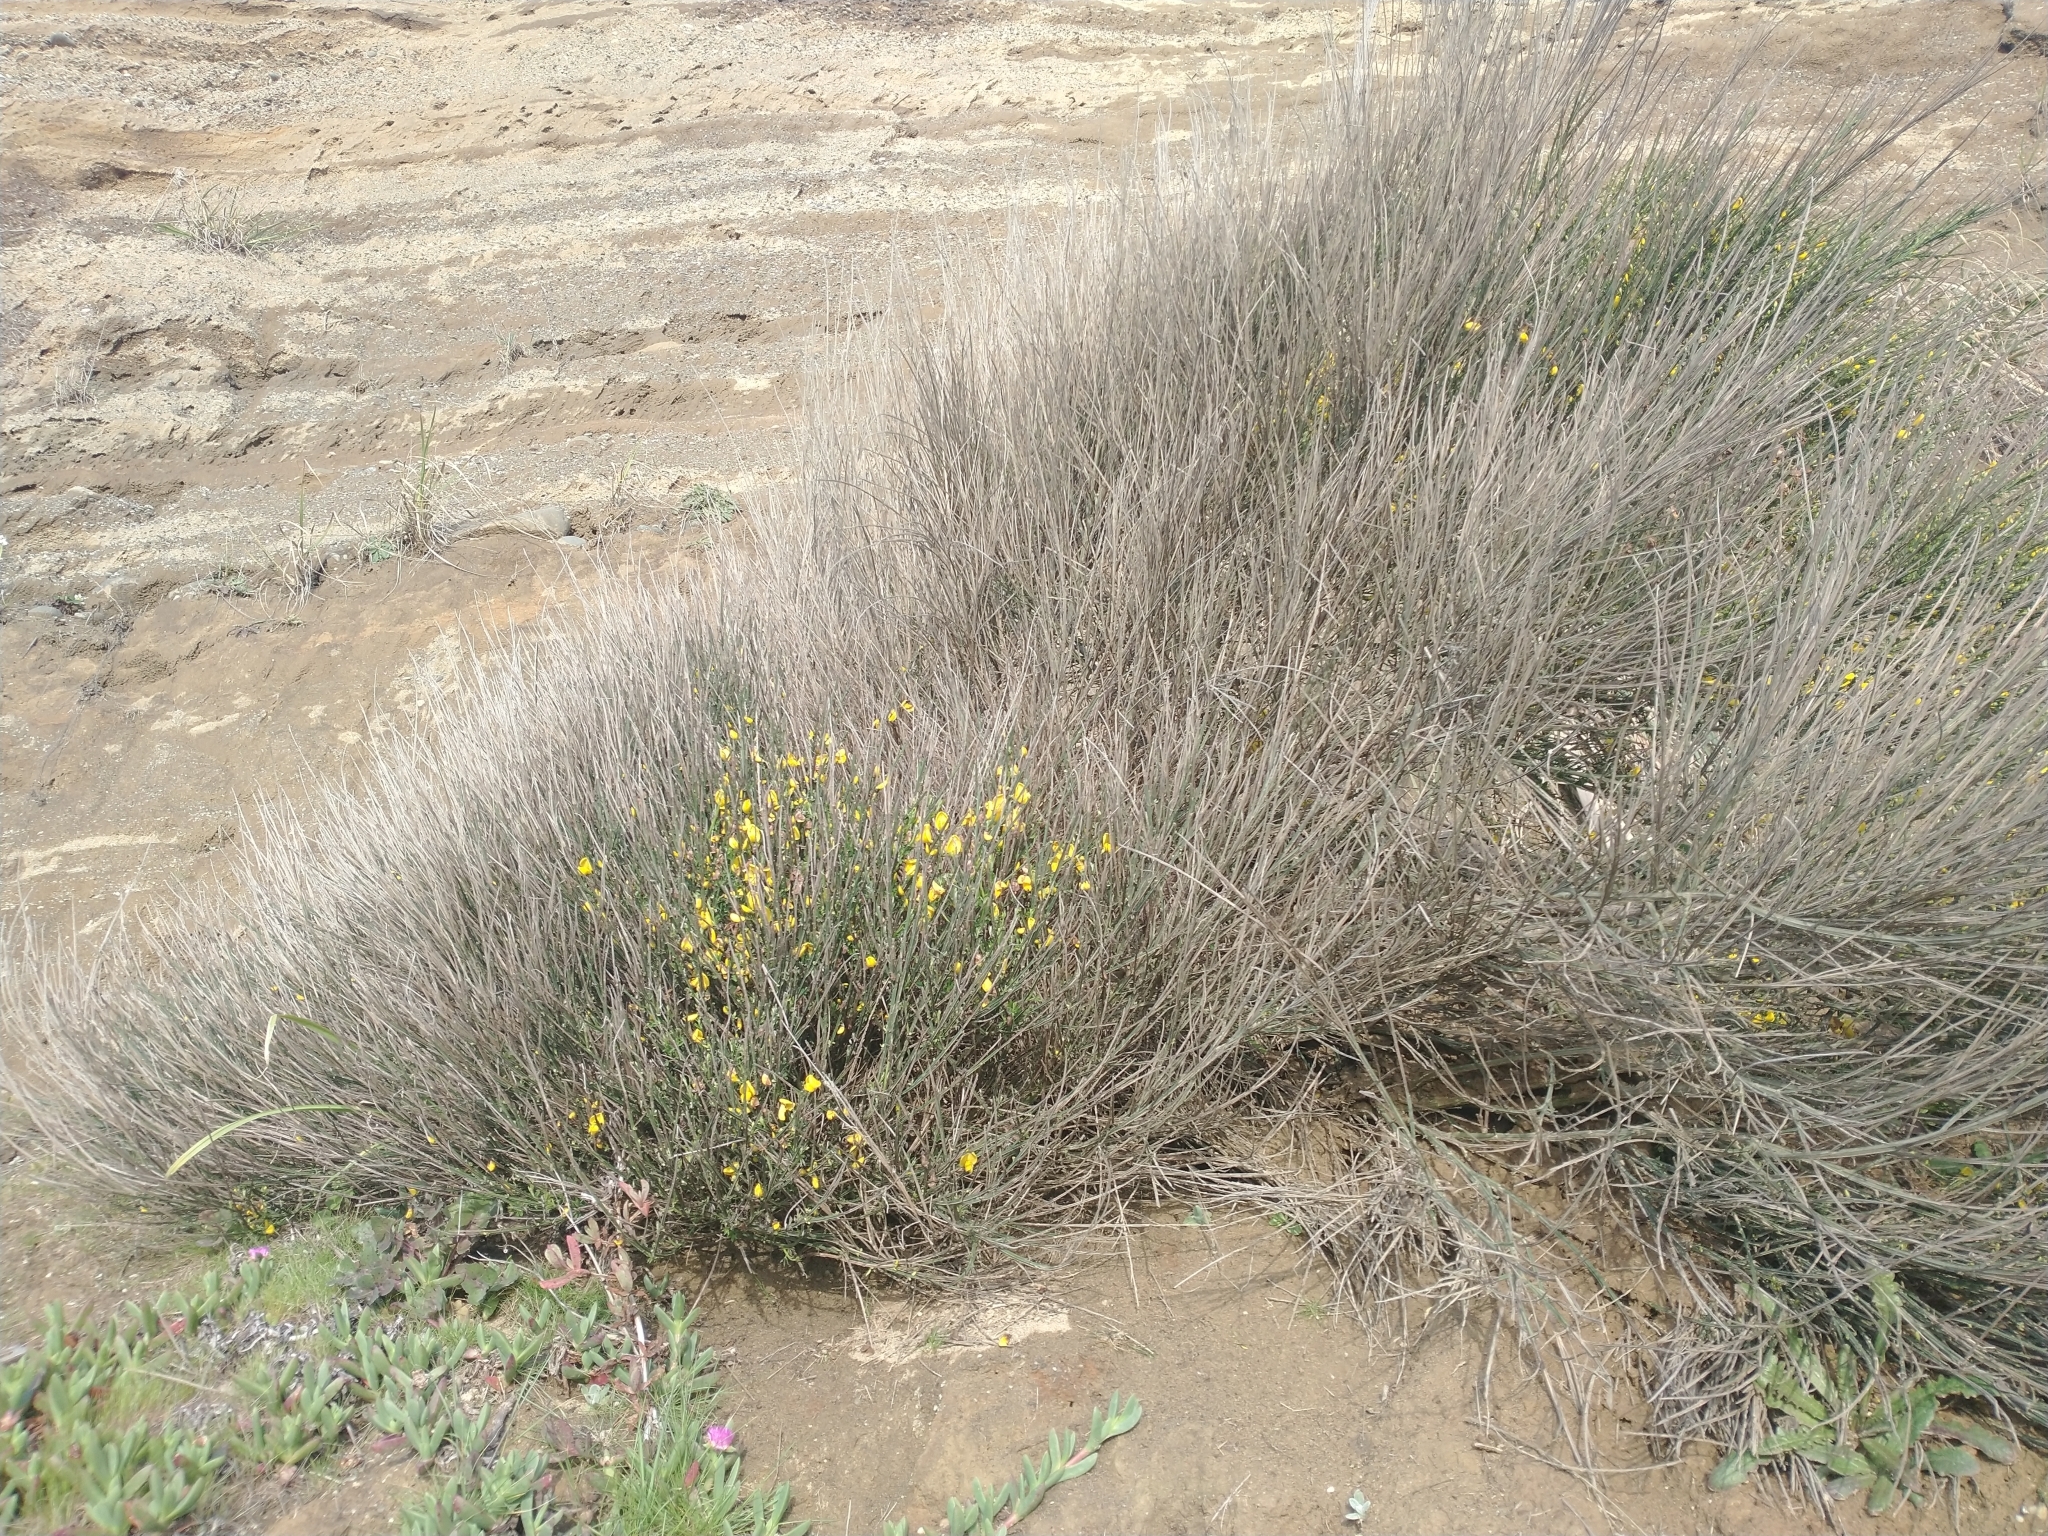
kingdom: Plantae
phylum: Tracheophyta
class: Magnoliopsida
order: Fabales
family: Fabaceae
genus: Cytisus
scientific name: Cytisus scoparius
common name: Scotch broom
